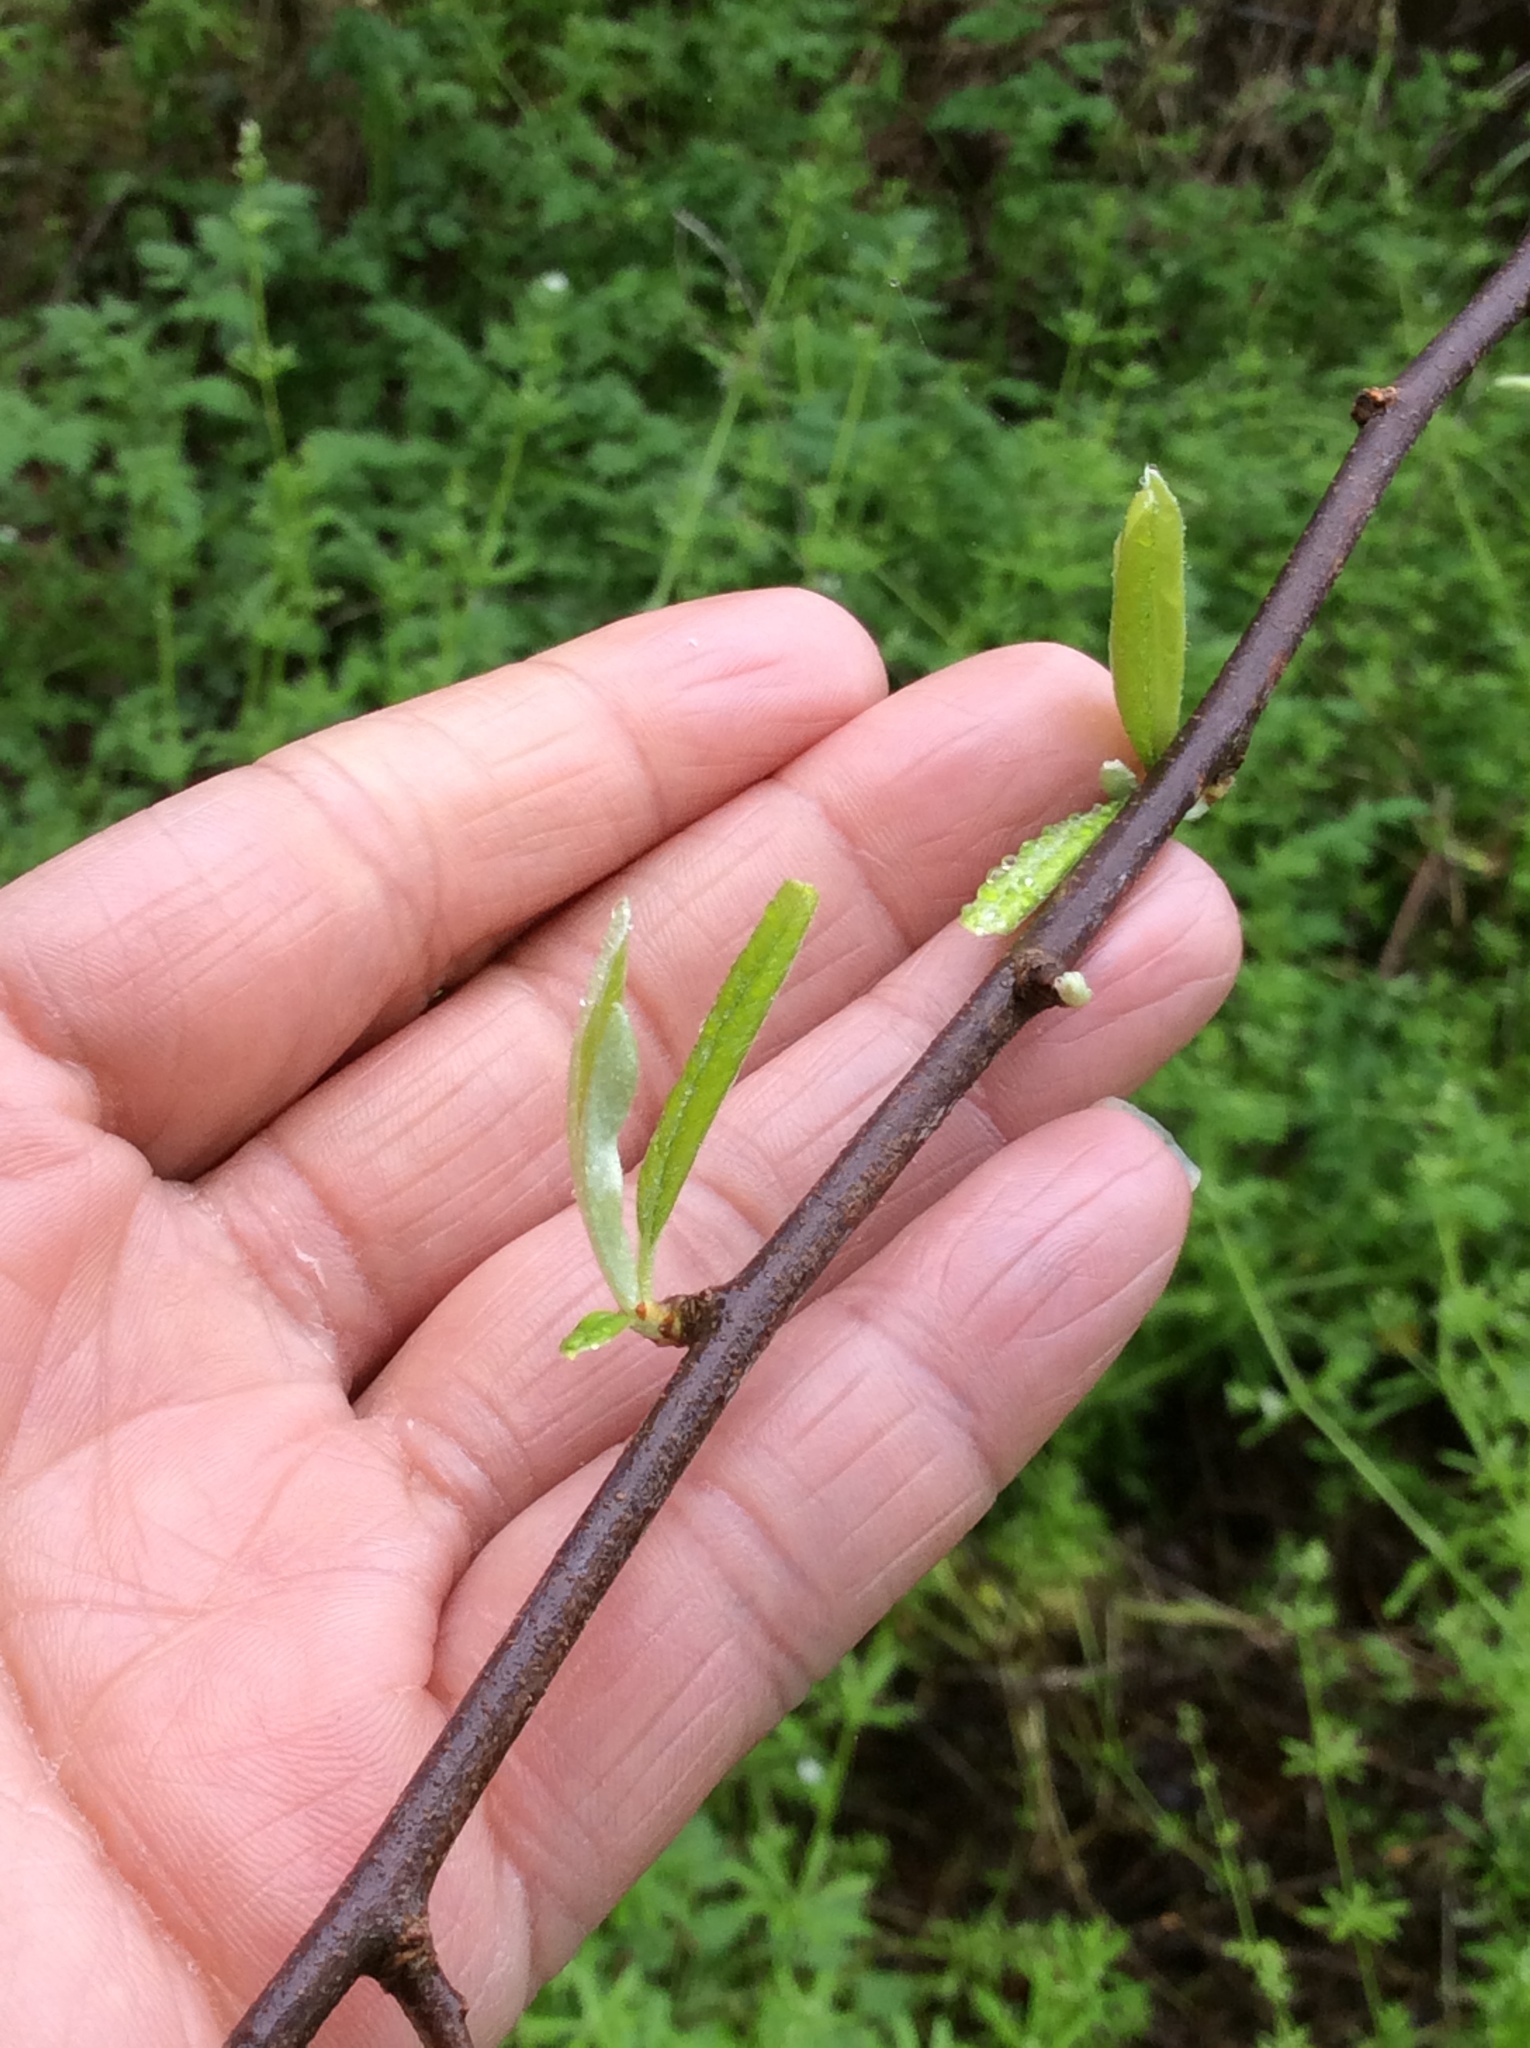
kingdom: Plantae
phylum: Tracheophyta
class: Magnoliopsida
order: Ericales
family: Sapotaceae
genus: Sideroxylon
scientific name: Sideroxylon lanuginosum
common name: Chittamwood
